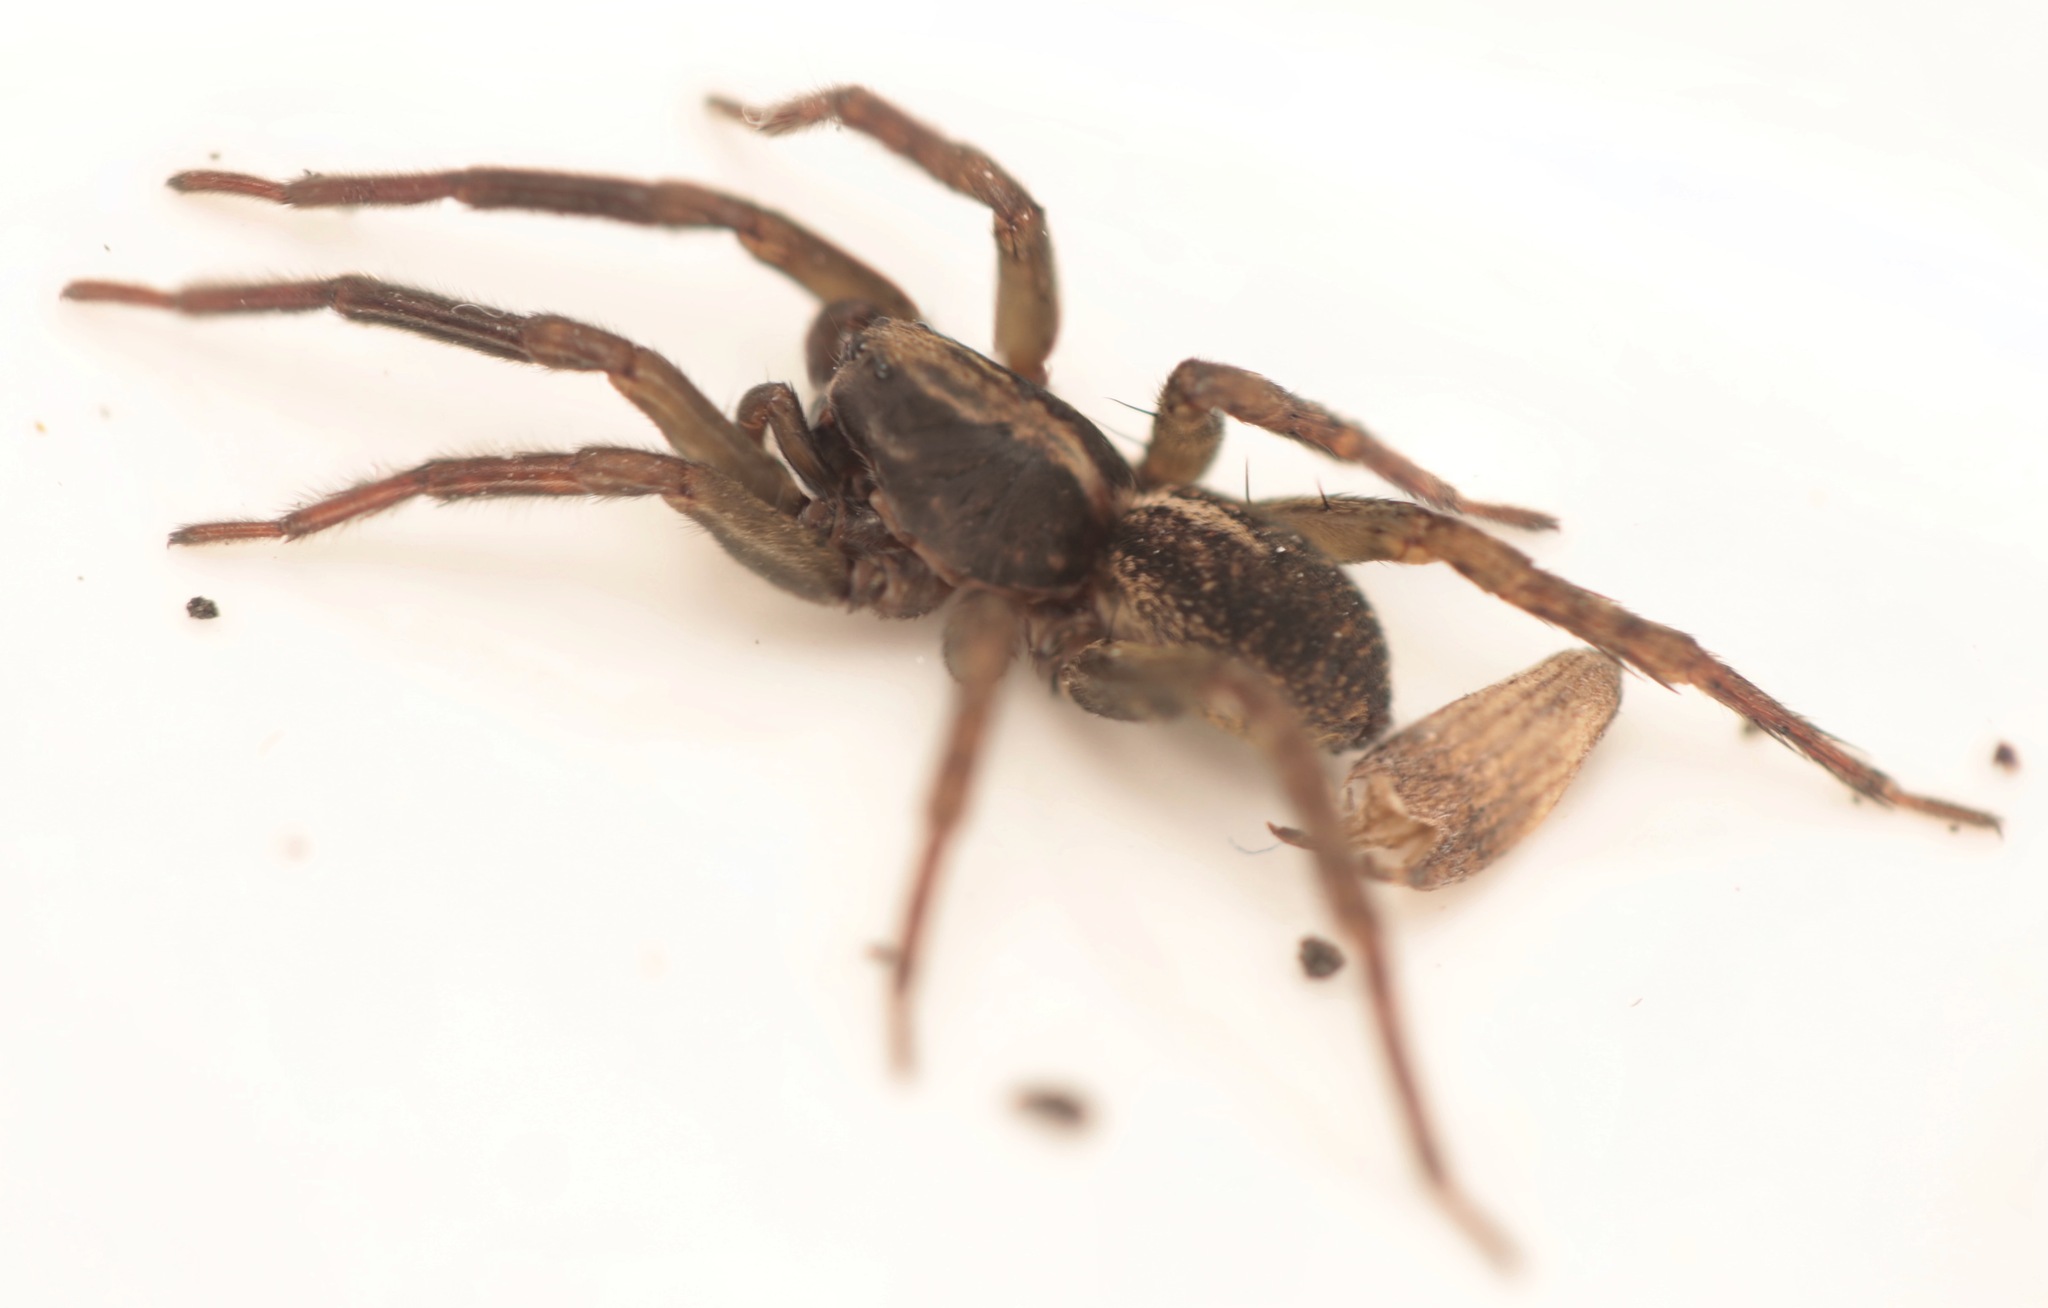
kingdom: Animalia
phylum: Arthropoda
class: Arachnida
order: Araneae
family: Lycosidae
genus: Trochosa
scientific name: Trochosa terricola
